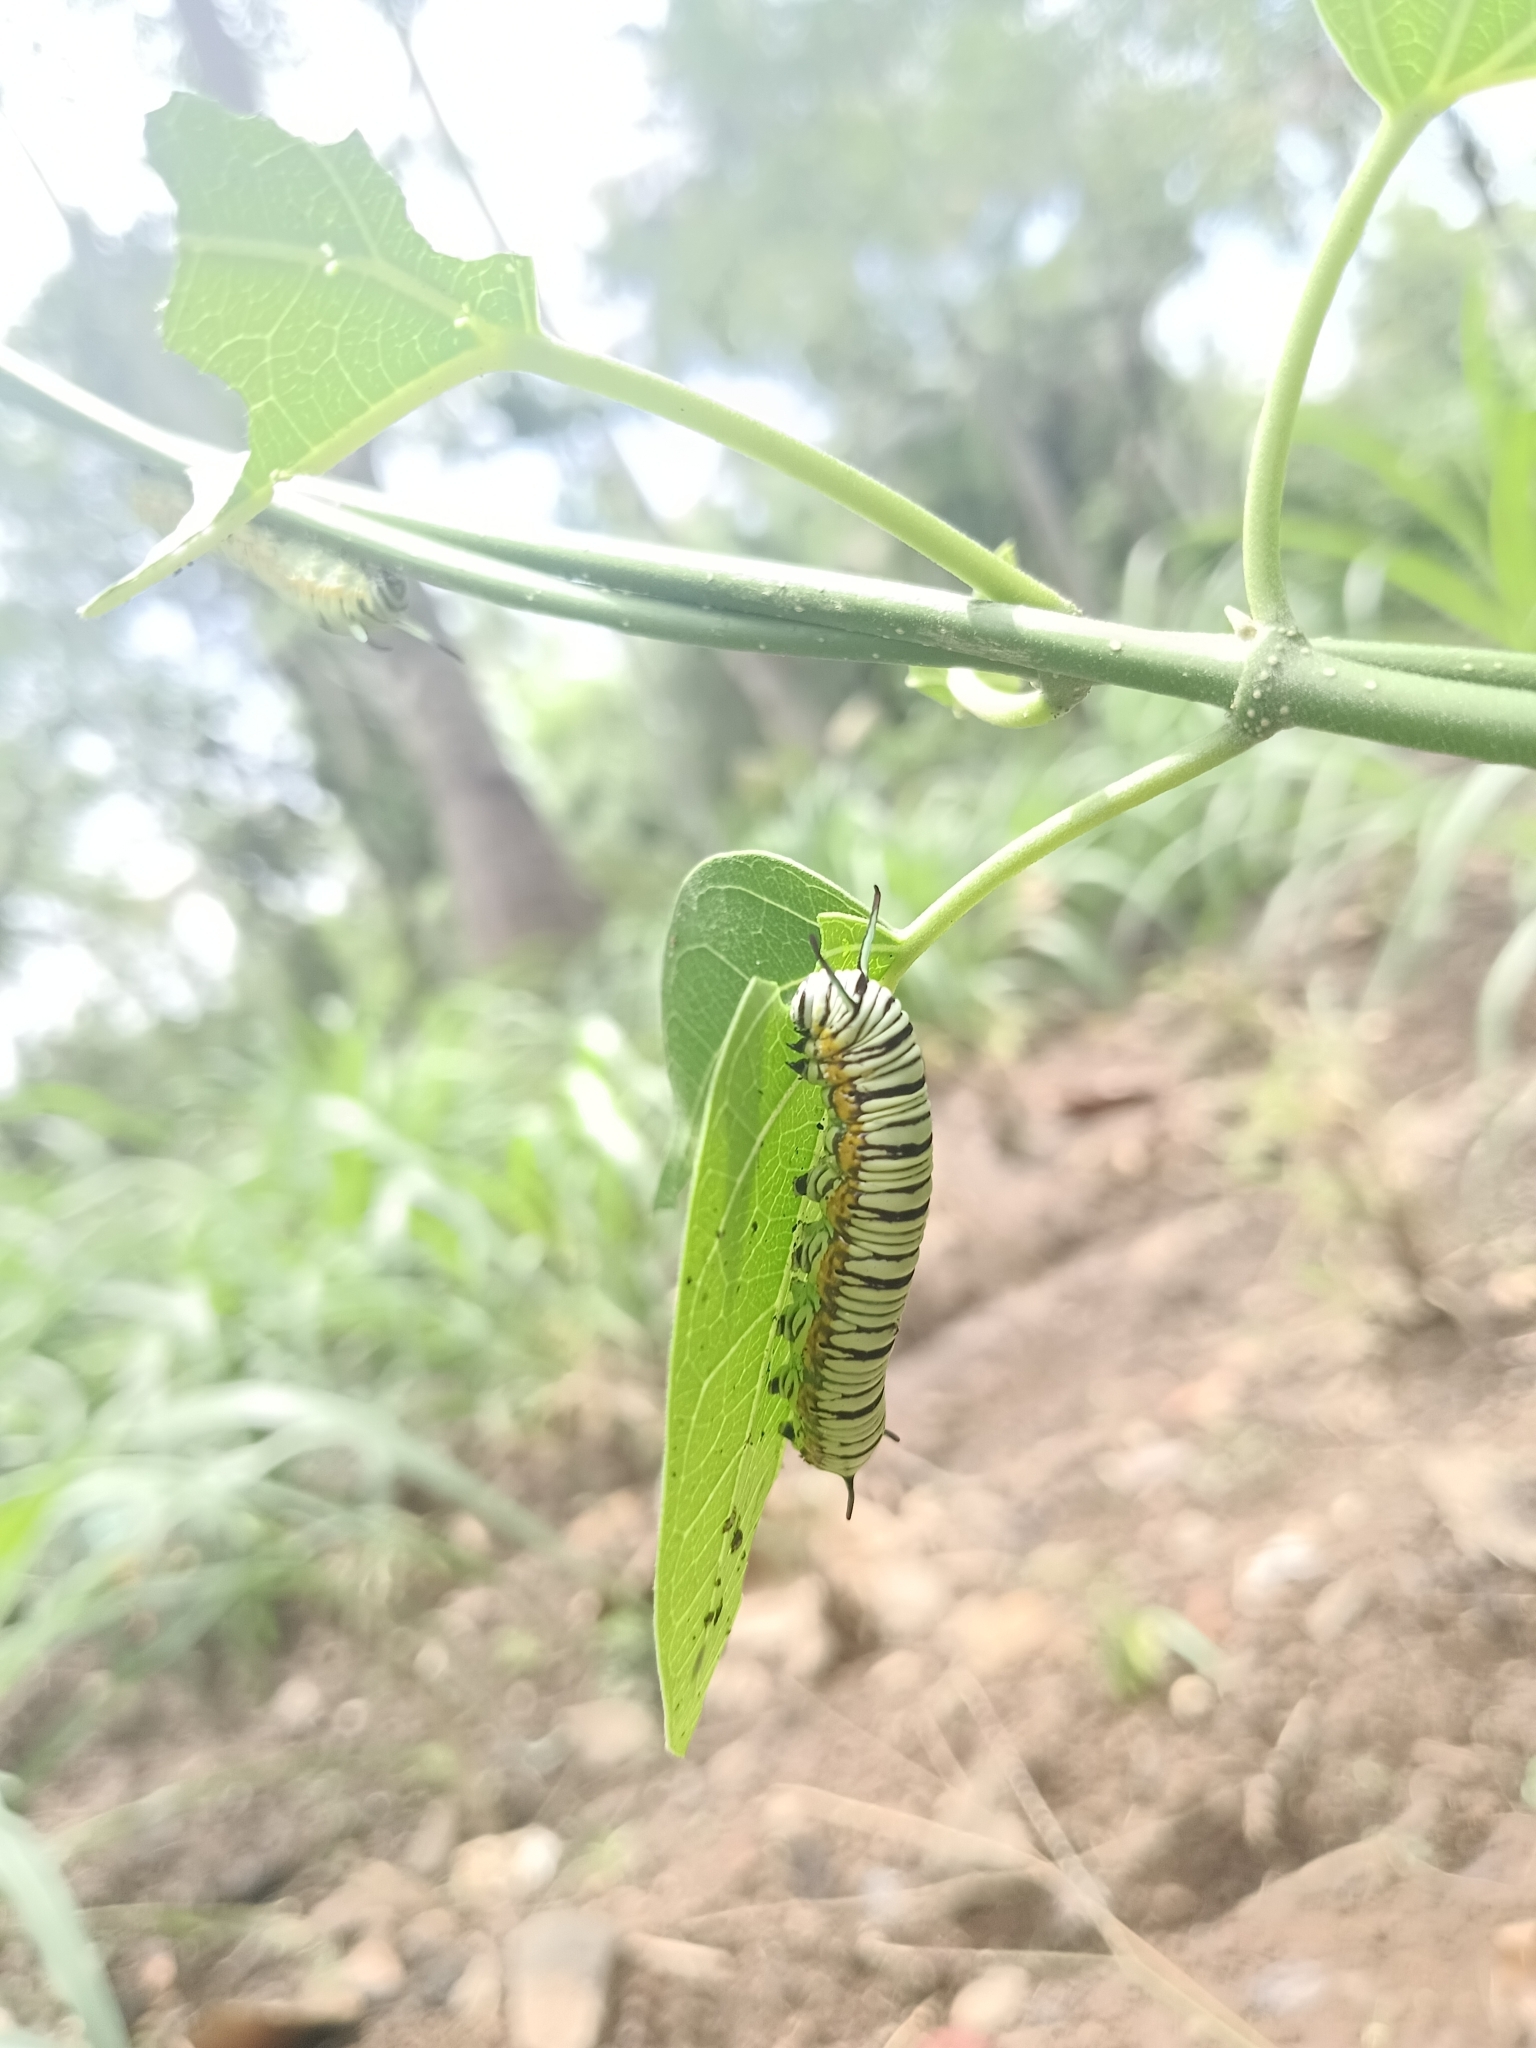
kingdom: Animalia
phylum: Arthropoda
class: Insecta
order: Lepidoptera
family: Nymphalidae
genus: Tirumala
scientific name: Tirumala limniace
